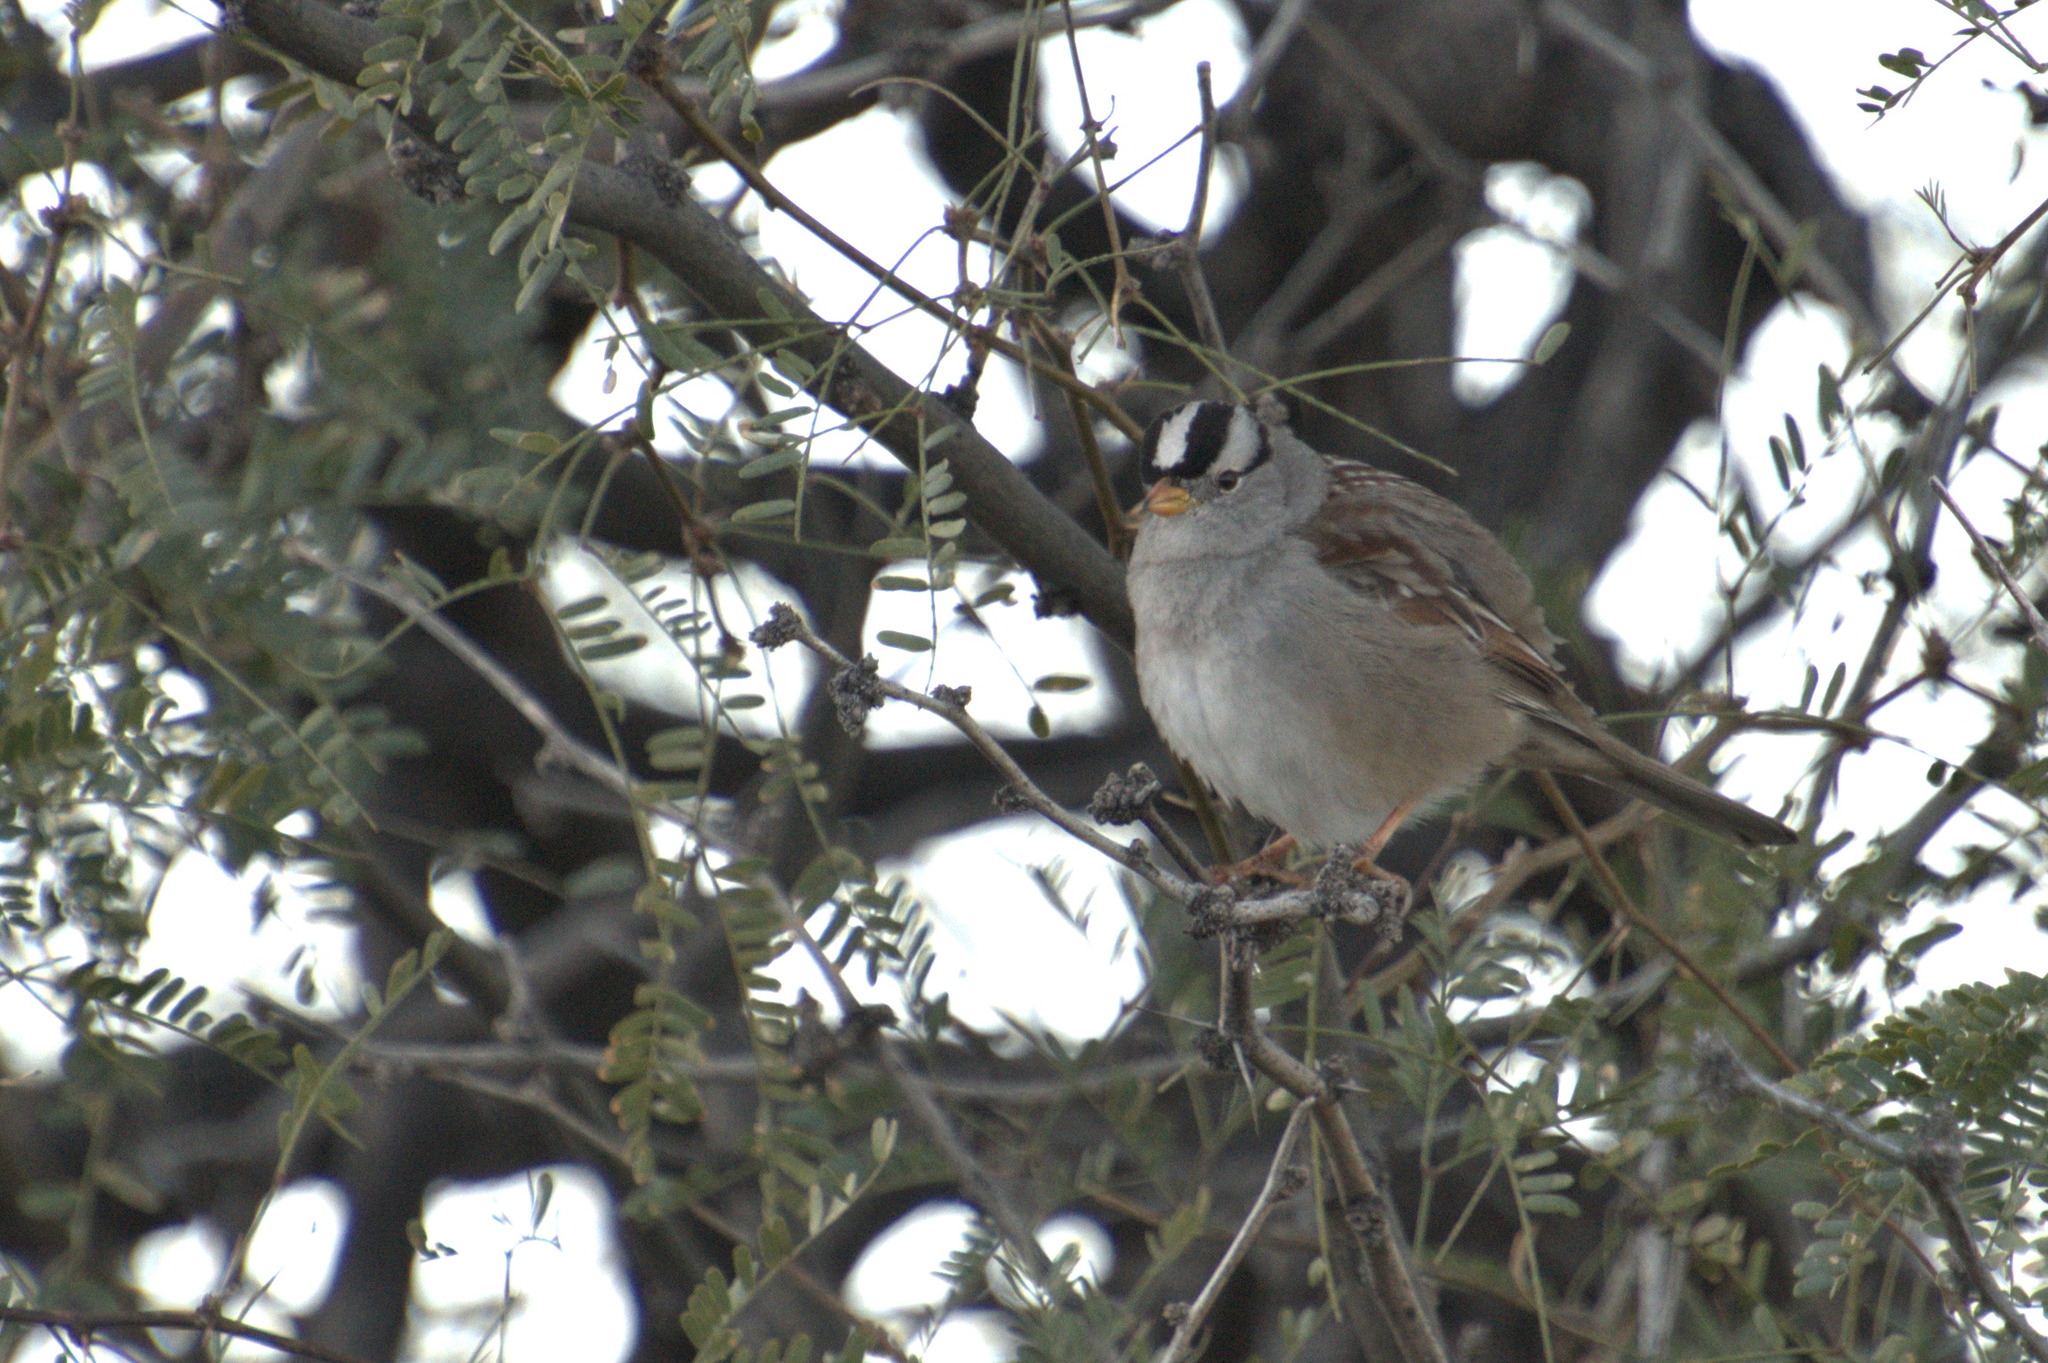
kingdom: Animalia
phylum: Chordata
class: Aves
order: Passeriformes
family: Passerellidae
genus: Zonotrichia
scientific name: Zonotrichia leucophrys
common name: White-crowned sparrow
